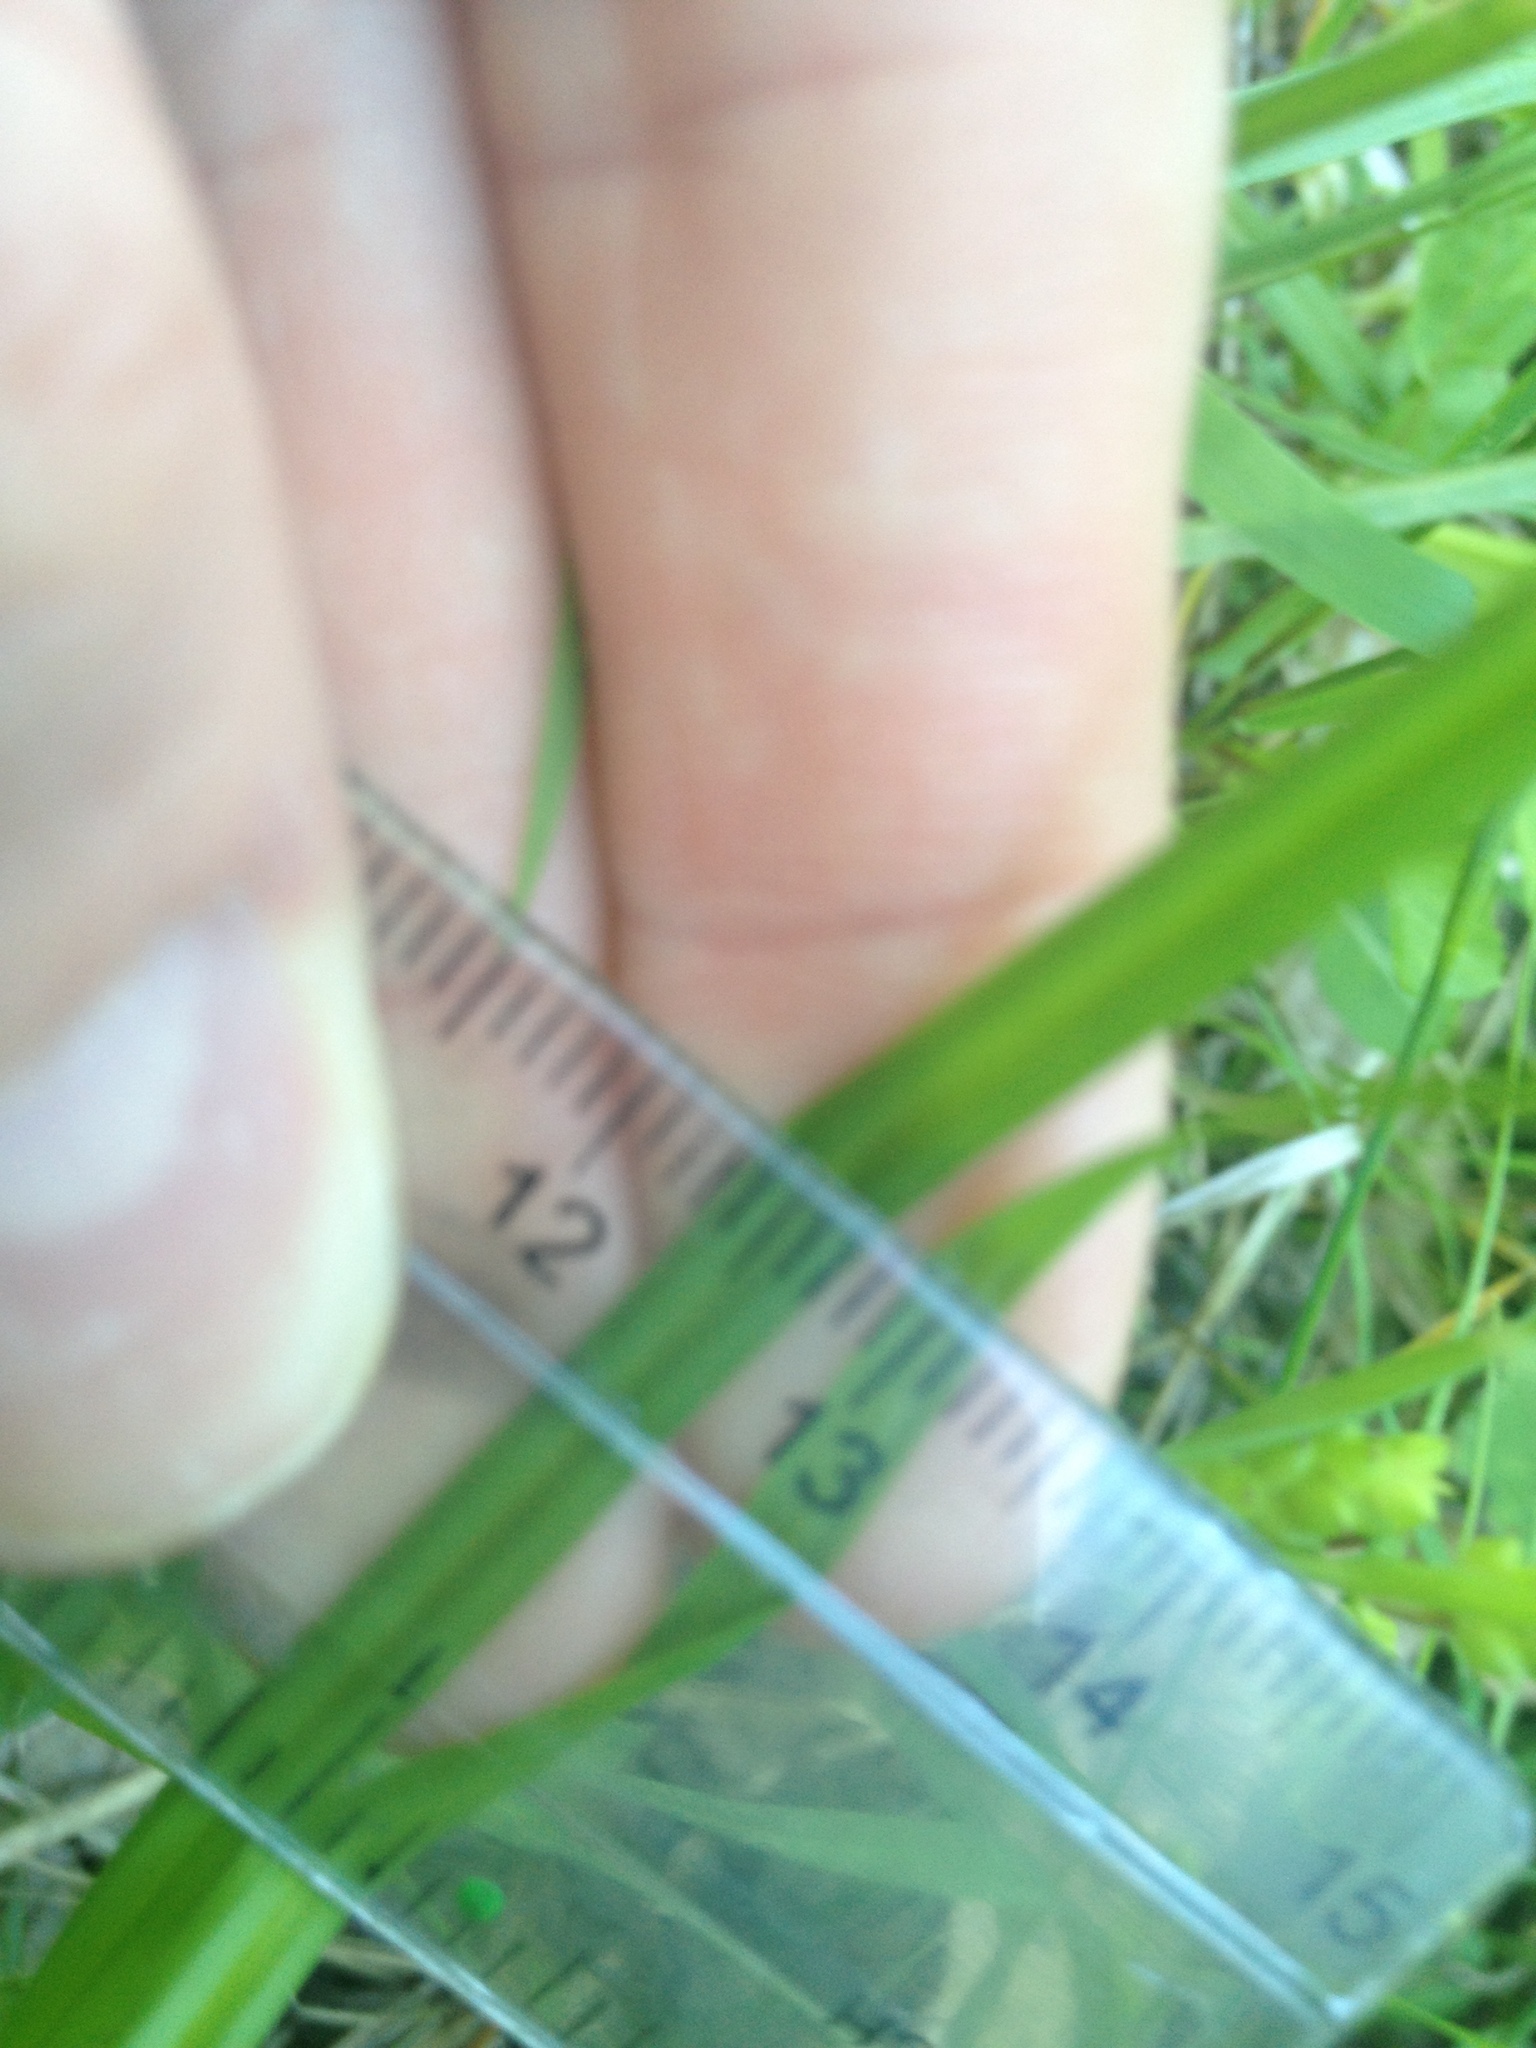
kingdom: Plantae
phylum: Tracheophyta
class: Liliopsida
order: Poales
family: Cyperaceae
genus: Carex
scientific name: Carex flava
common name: Large yellow-sedge
